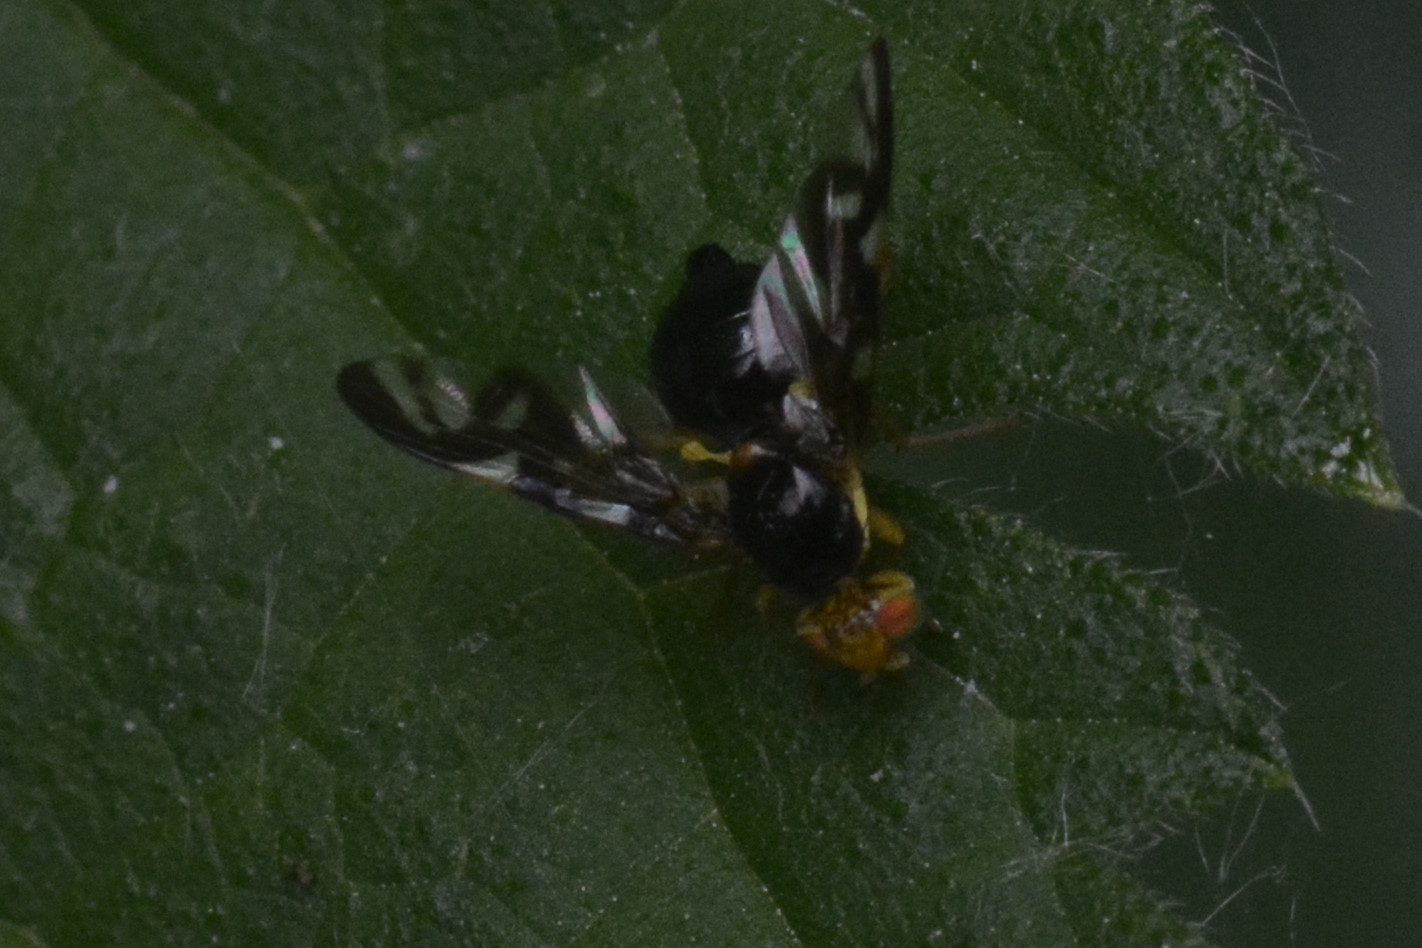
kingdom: Animalia
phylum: Arthropoda
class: Insecta
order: Diptera
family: Tephritidae
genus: Euleia
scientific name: Euleia heraclei
